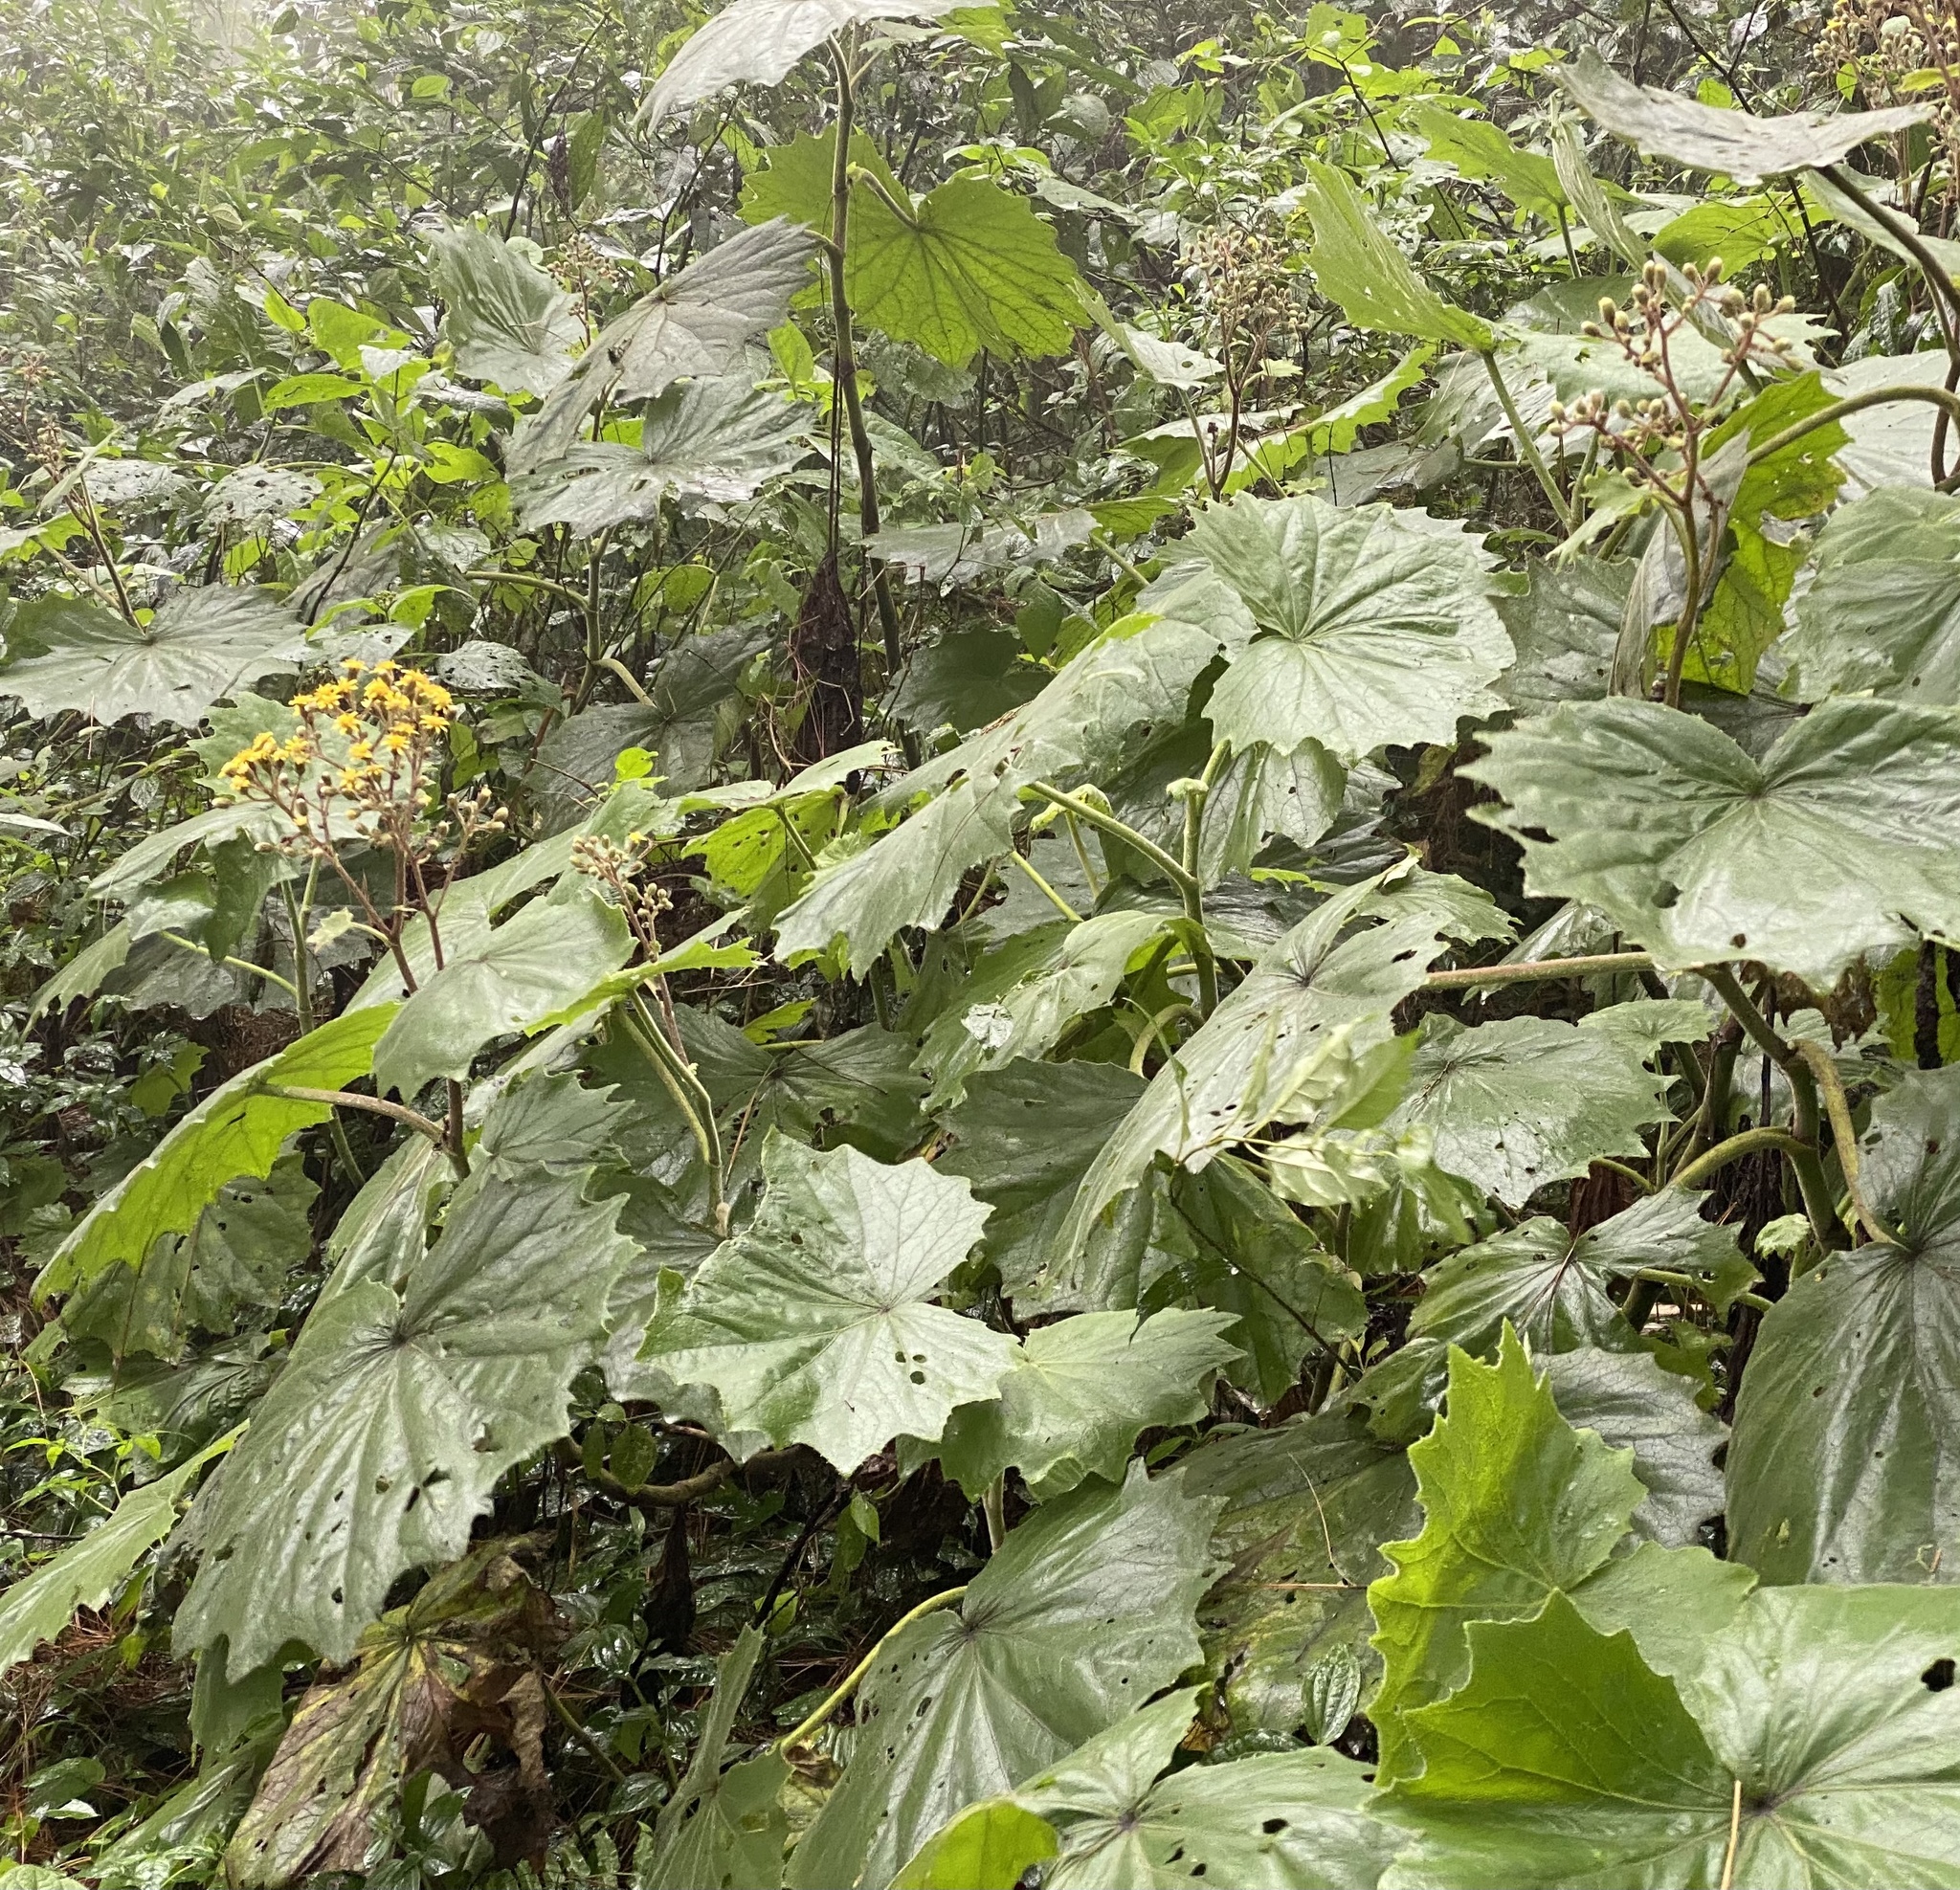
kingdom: Plantae
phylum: Tracheophyta
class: Magnoliopsida
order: Asterales
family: Asteraceae
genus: Roldana
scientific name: Roldana gilgii
